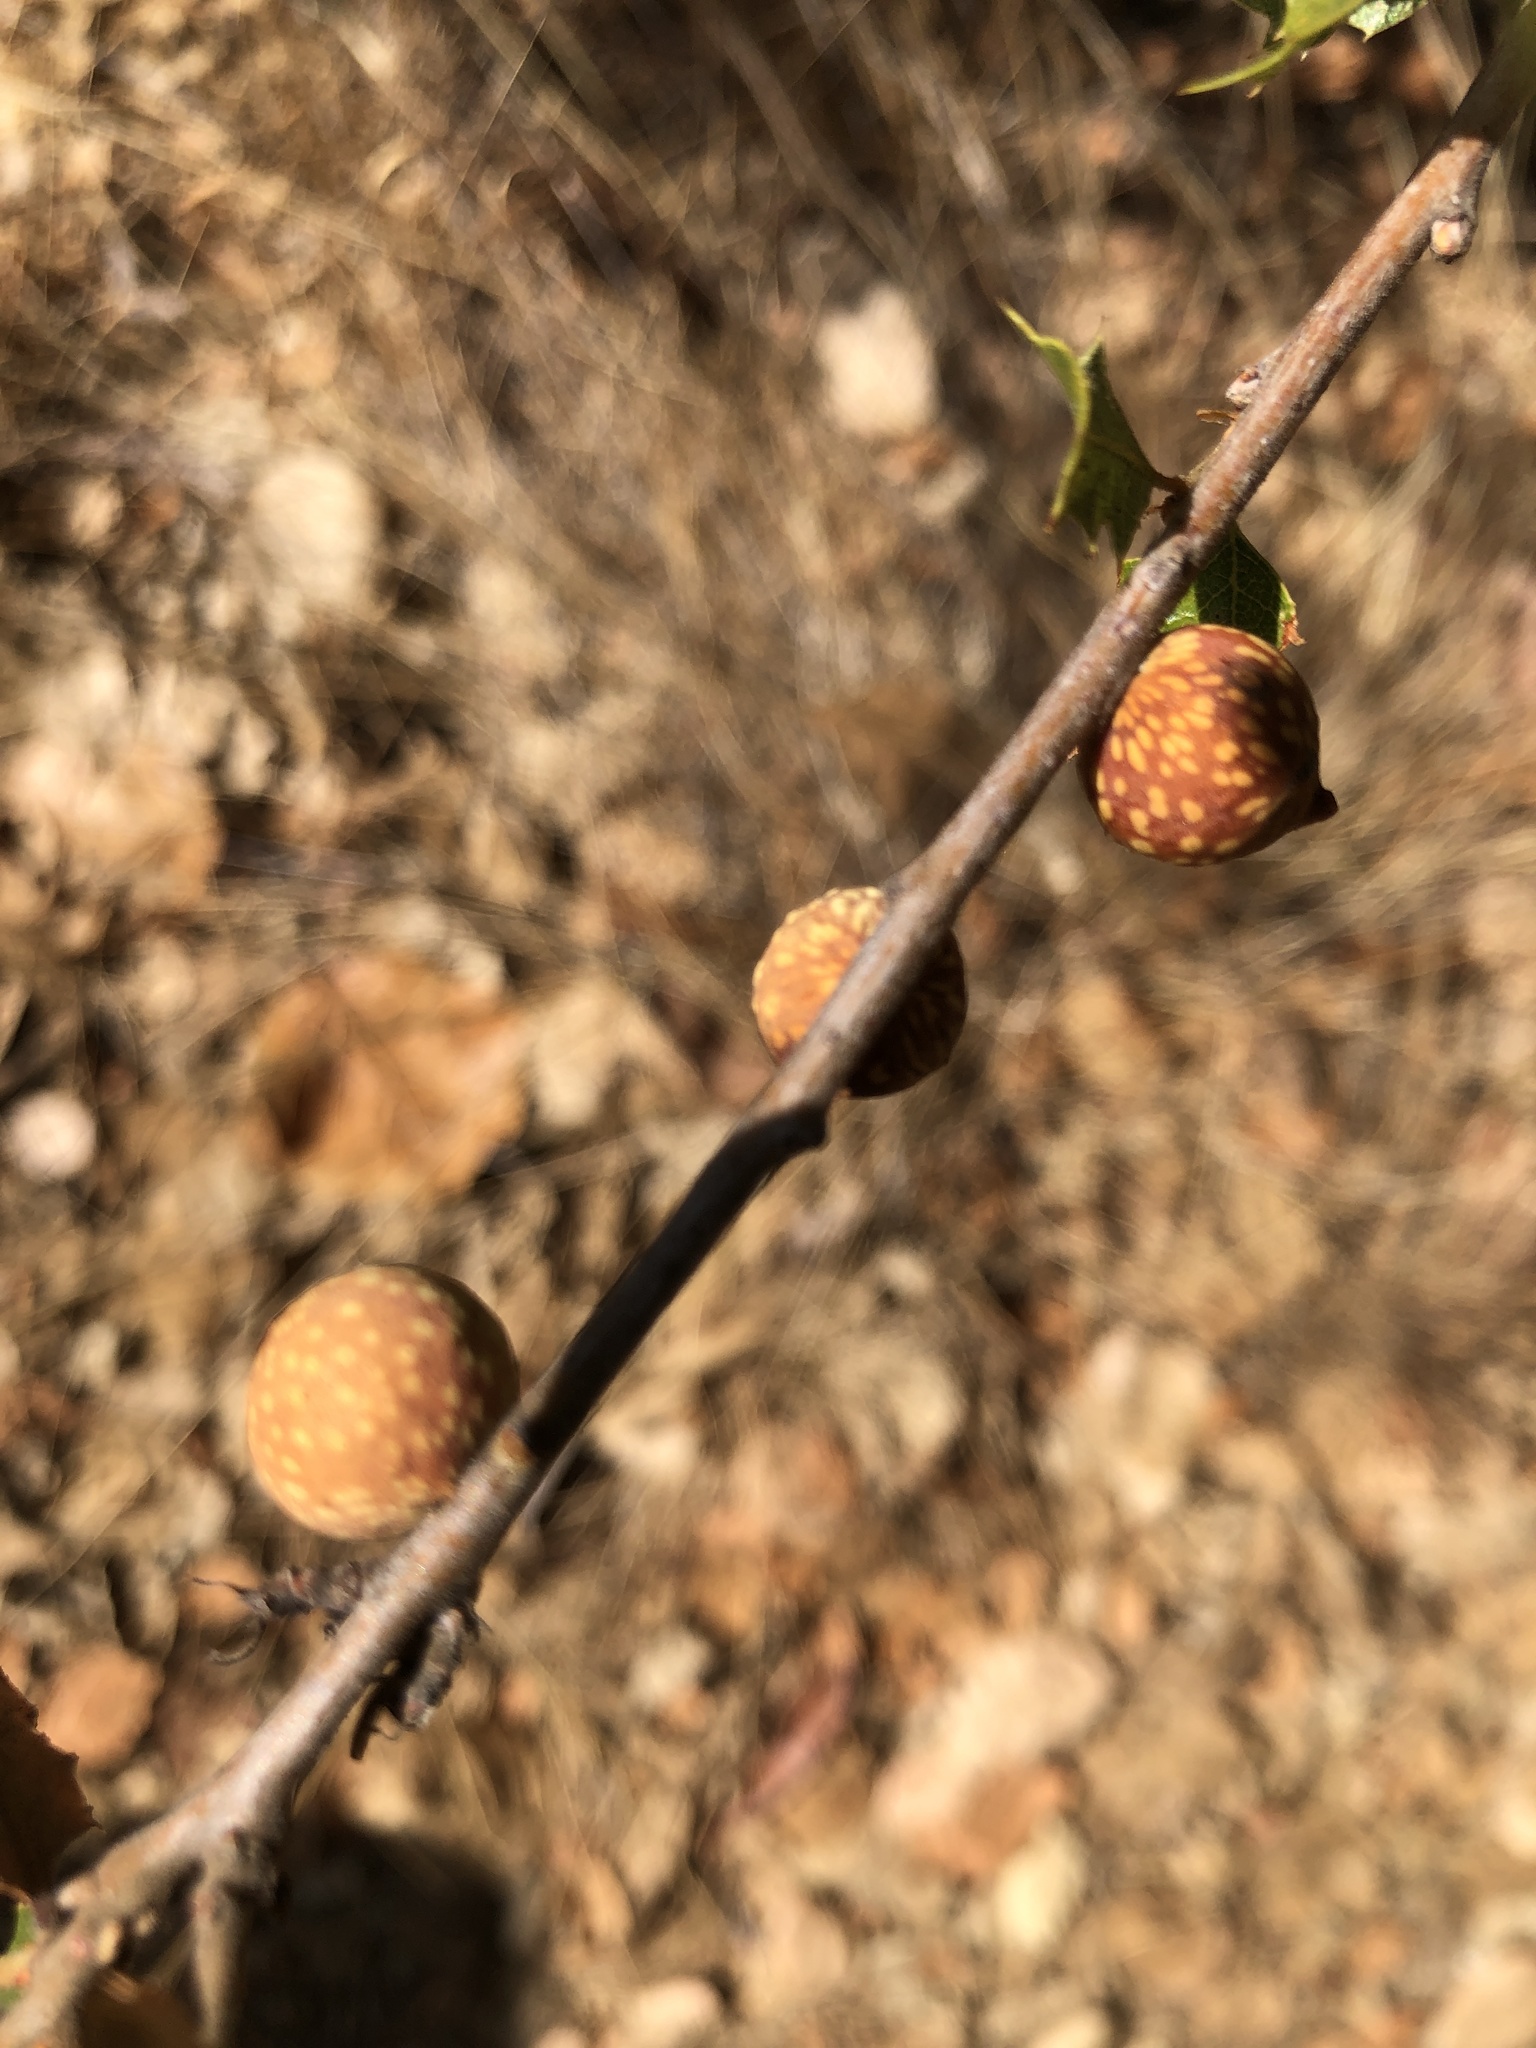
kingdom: Animalia
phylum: Arthropoda
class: Insecta
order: Hymenoptera
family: Cynipidae
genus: Burnettweldia
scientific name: Burnettweldia
